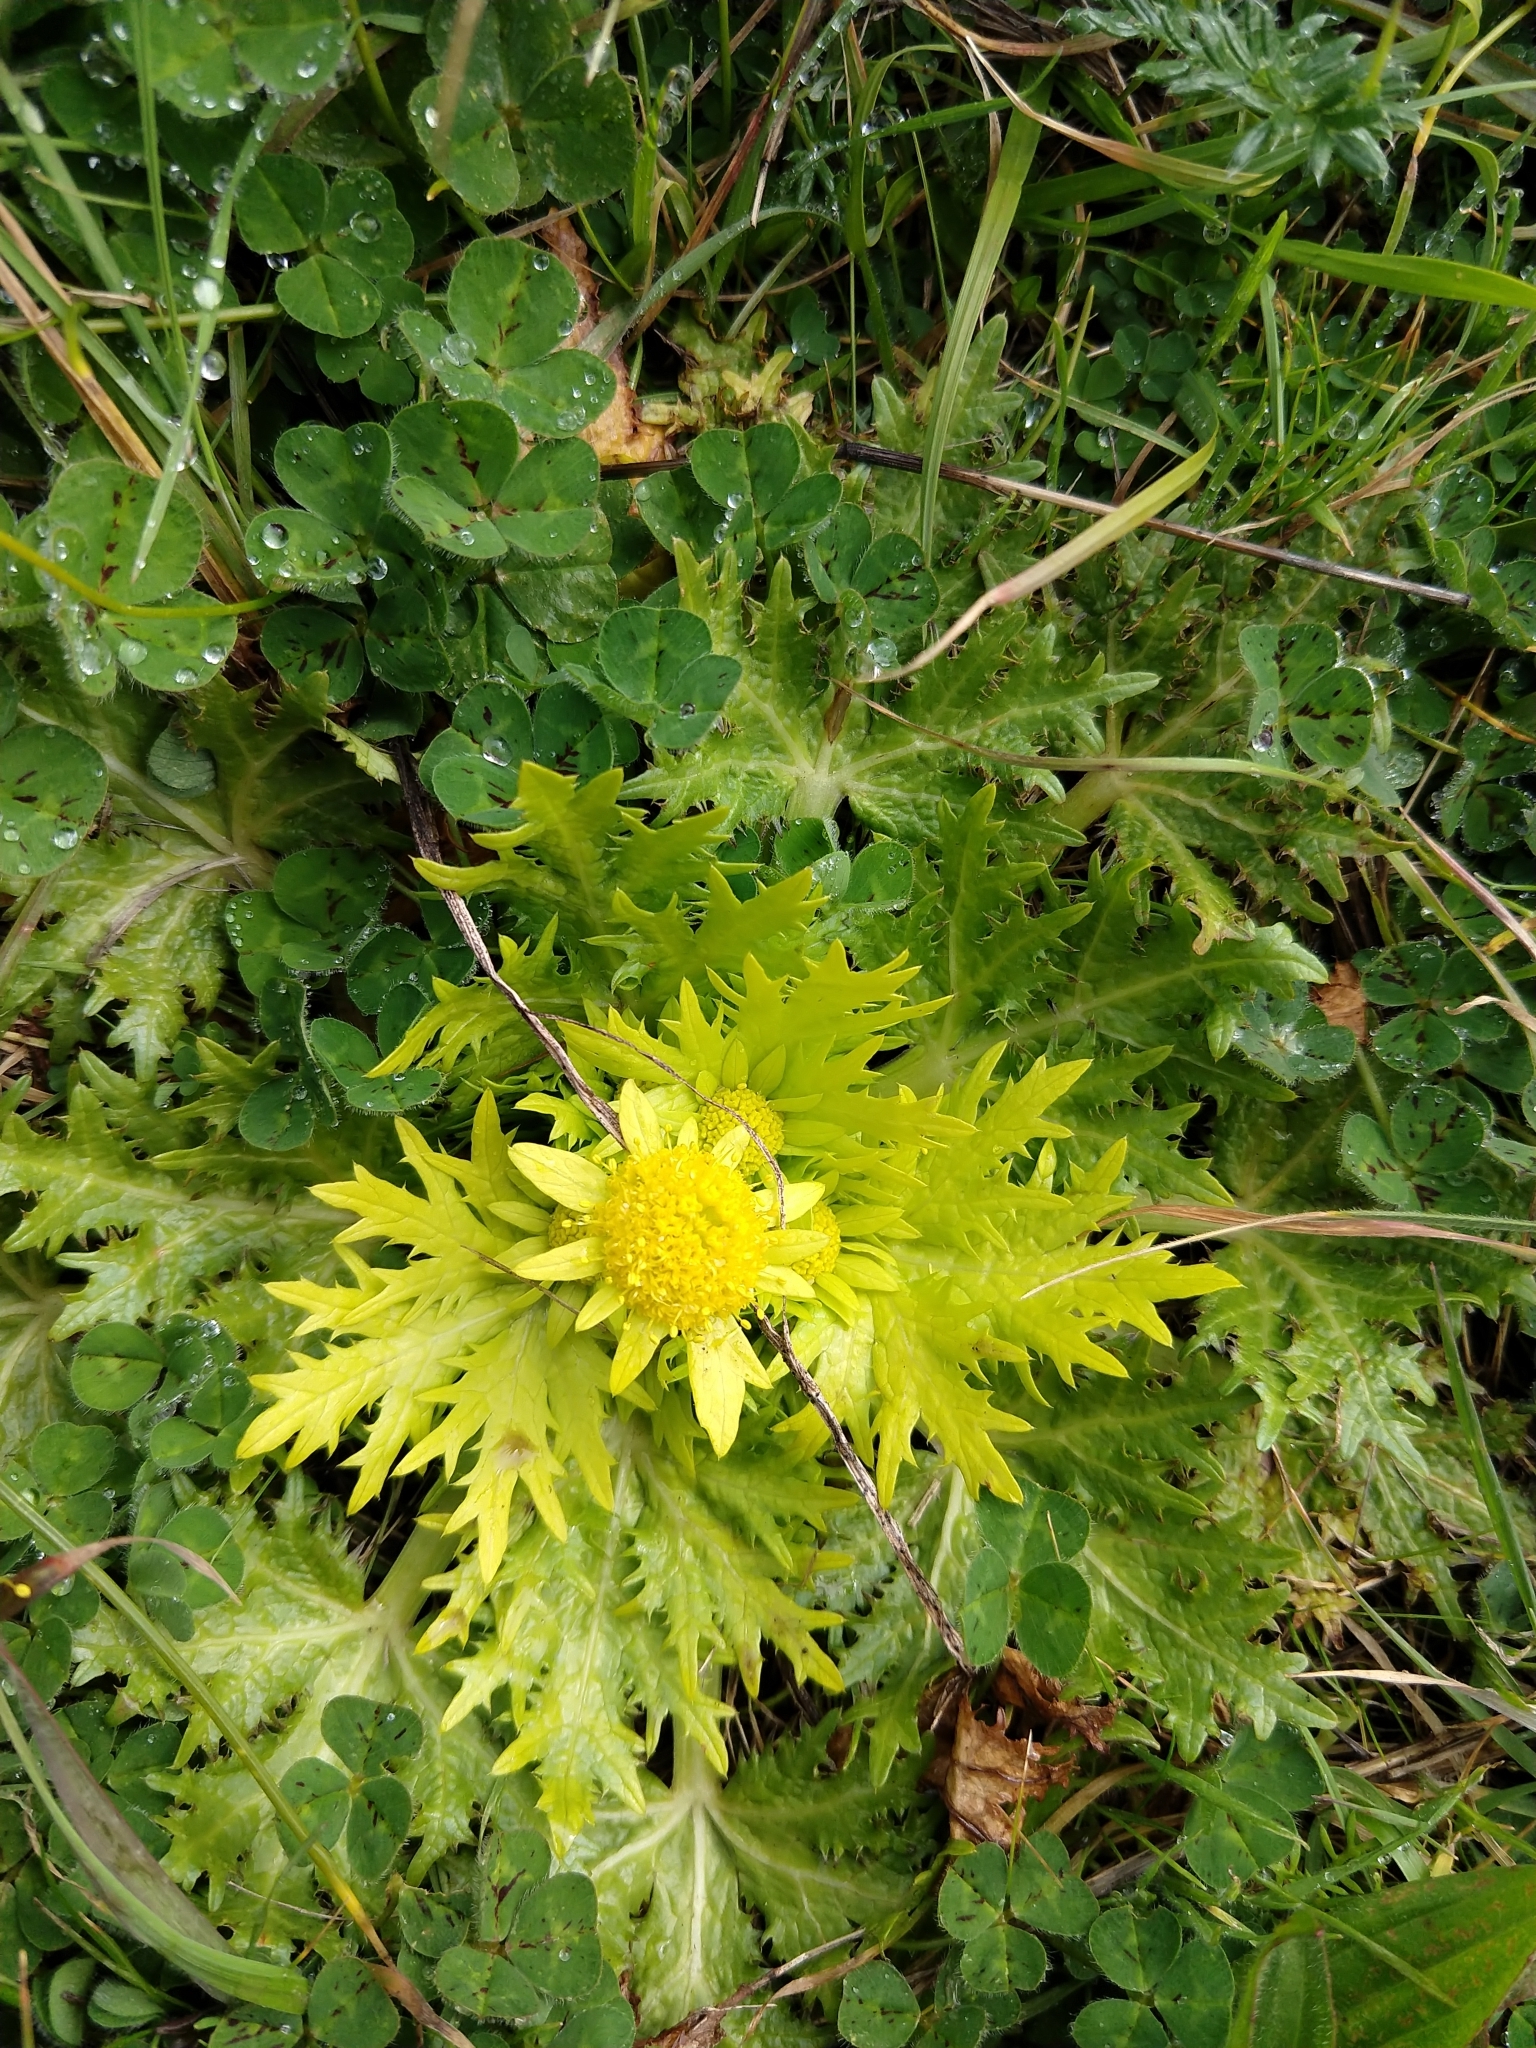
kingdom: Plantae
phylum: Tracheophyta
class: Magnoliopsida
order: Apiales
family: Apiaceae
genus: Sanicula
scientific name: Sanicula arctopoides
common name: Footsteps-of-spring
